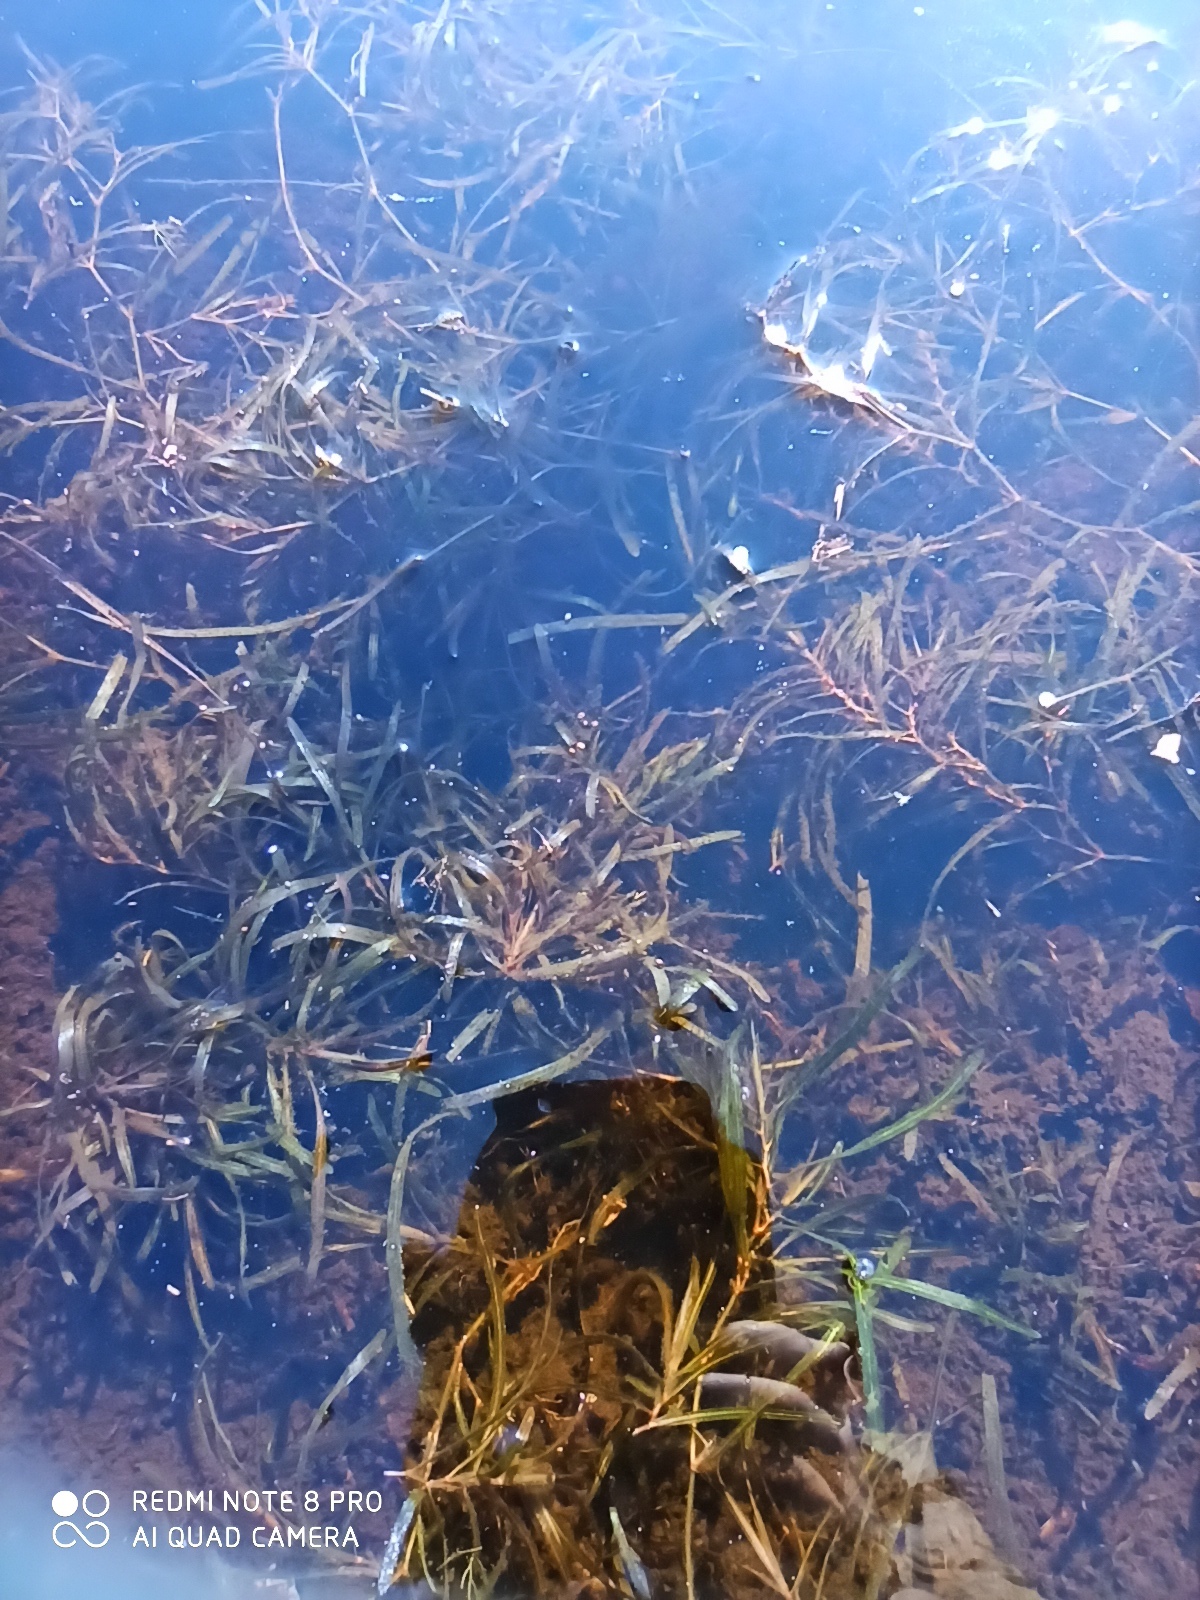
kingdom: Plantae
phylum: Tracheophyta
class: Liliopsida
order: Alismatales
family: Potamogetonaceae
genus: Potamogeton
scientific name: Potamogeton obtusifolius
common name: Blunt-leaved pondweed
